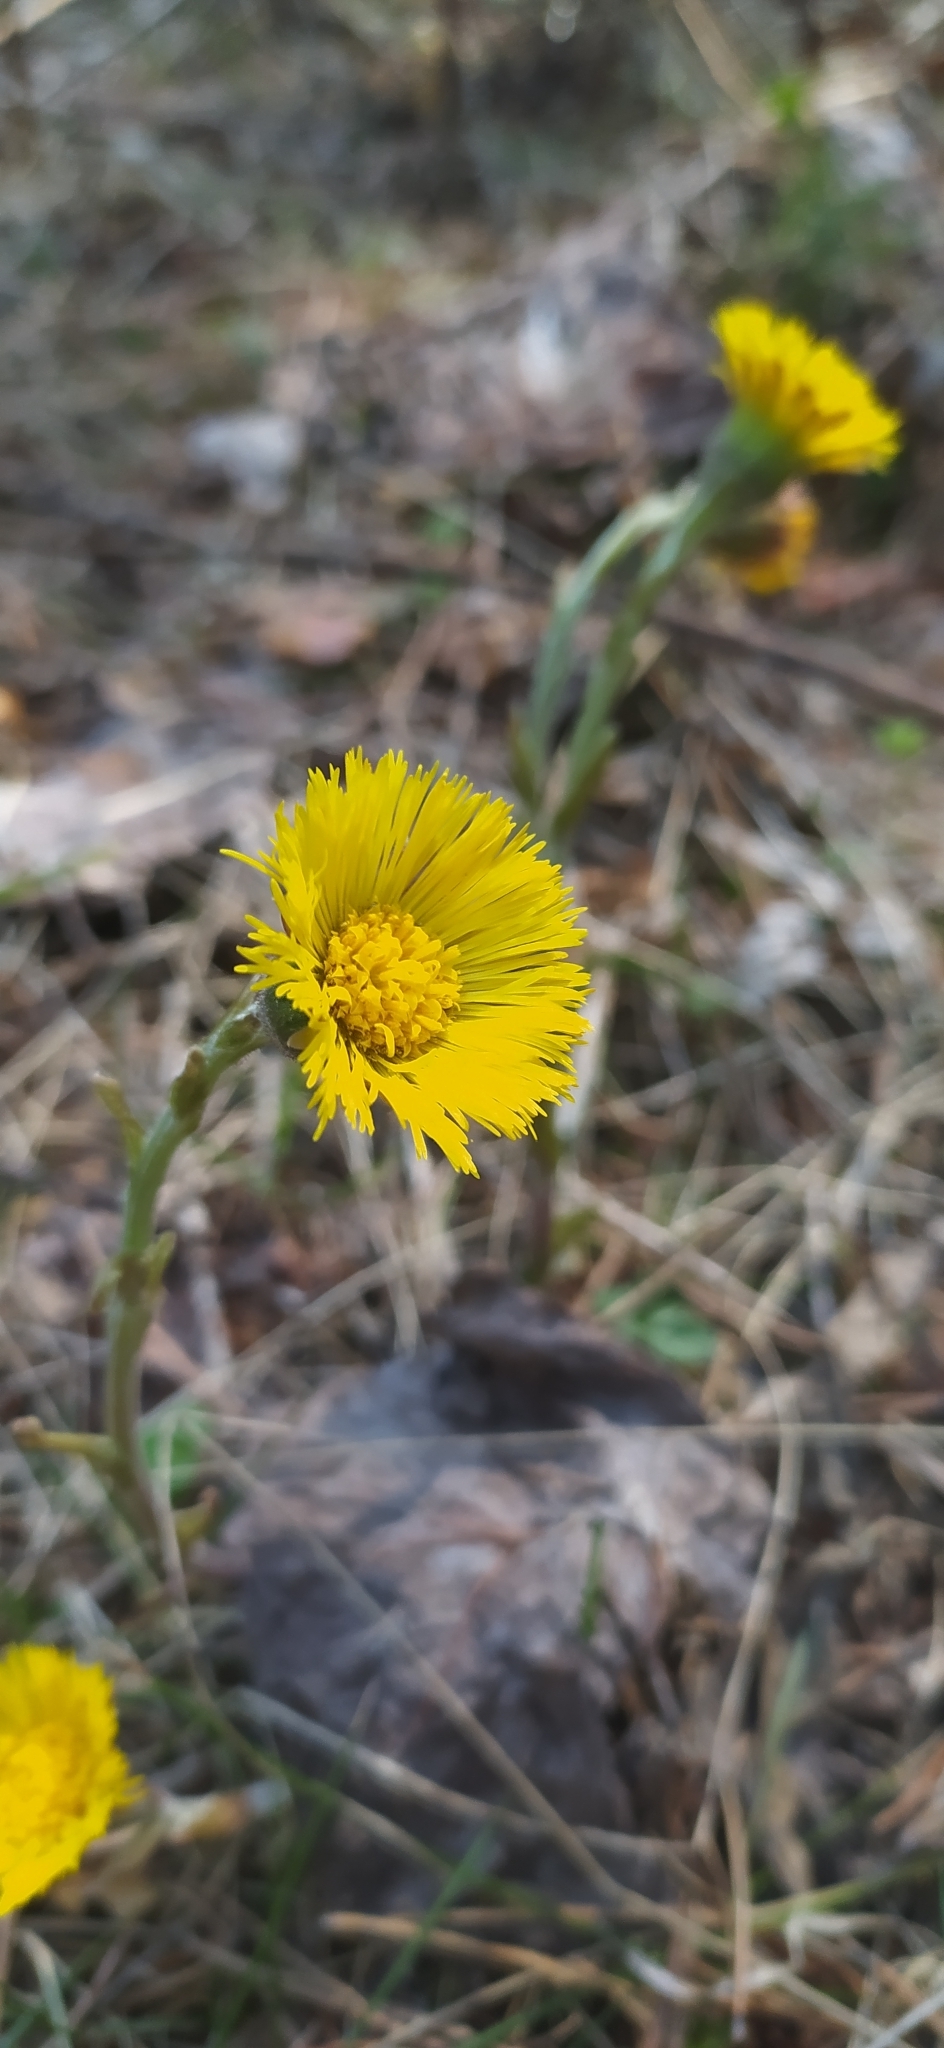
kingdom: Plantae
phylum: Tracheophyta
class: Magnoliopsida
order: Asterales
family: Asteraceae
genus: Tussilago
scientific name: Tussilago farfara
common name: Coltsfoot
